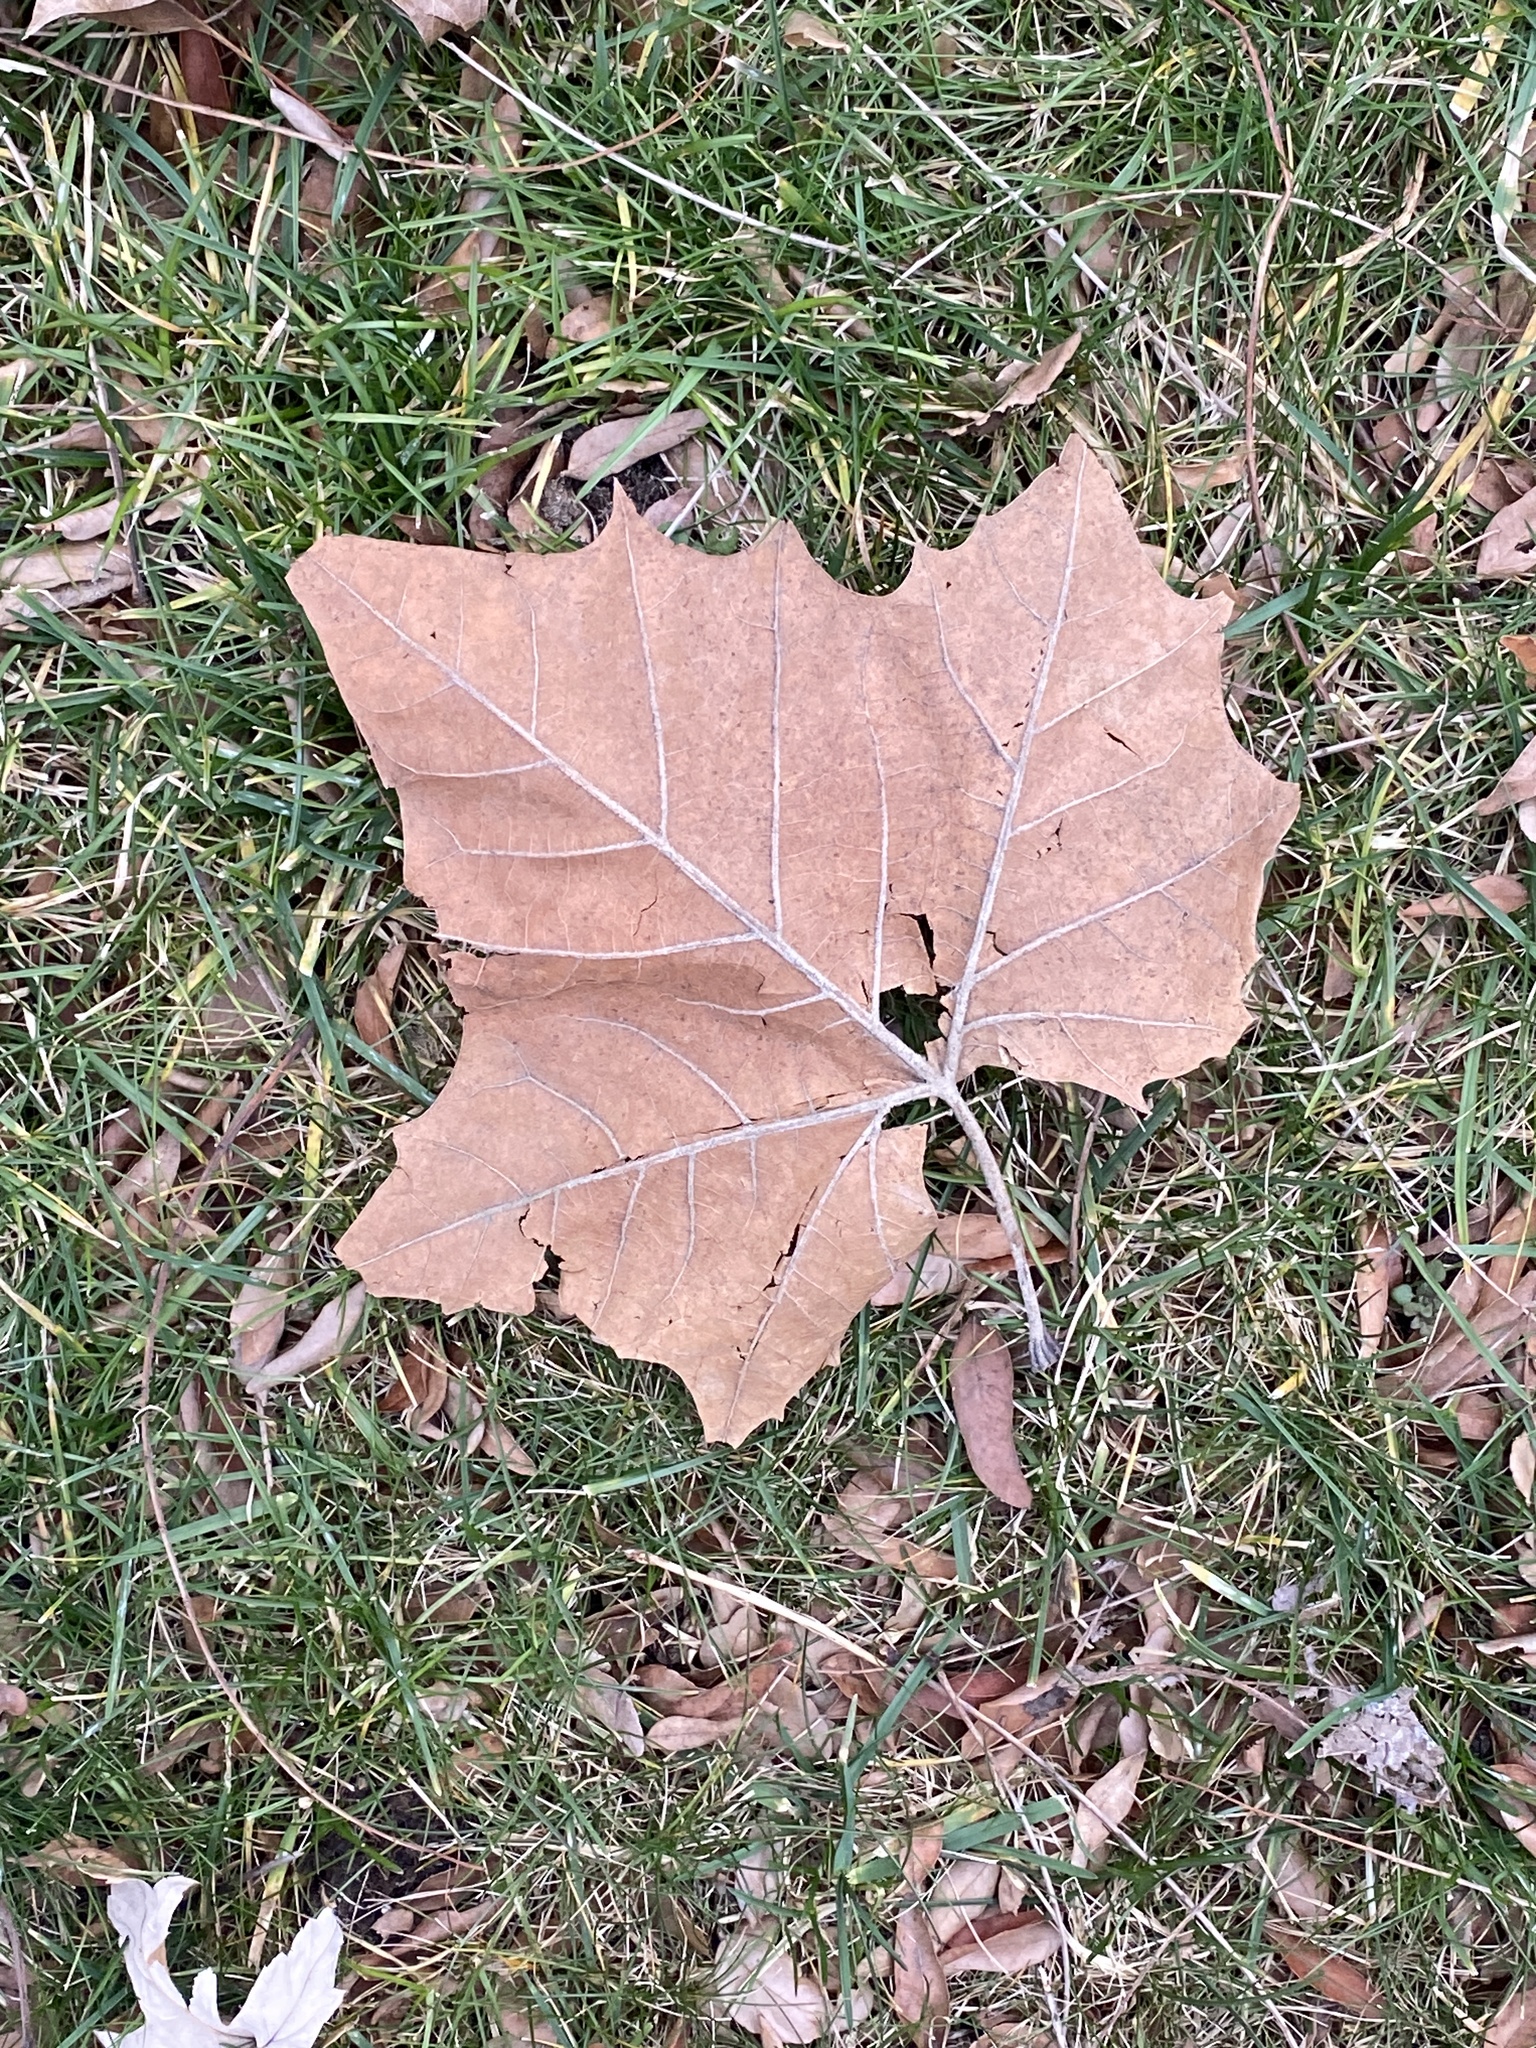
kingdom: Plantae
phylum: Tracheophyta
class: Magnoliopsida
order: Proteales
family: Platanaceae
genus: Platanus
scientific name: Platanus occidentalis
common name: American sycamore
